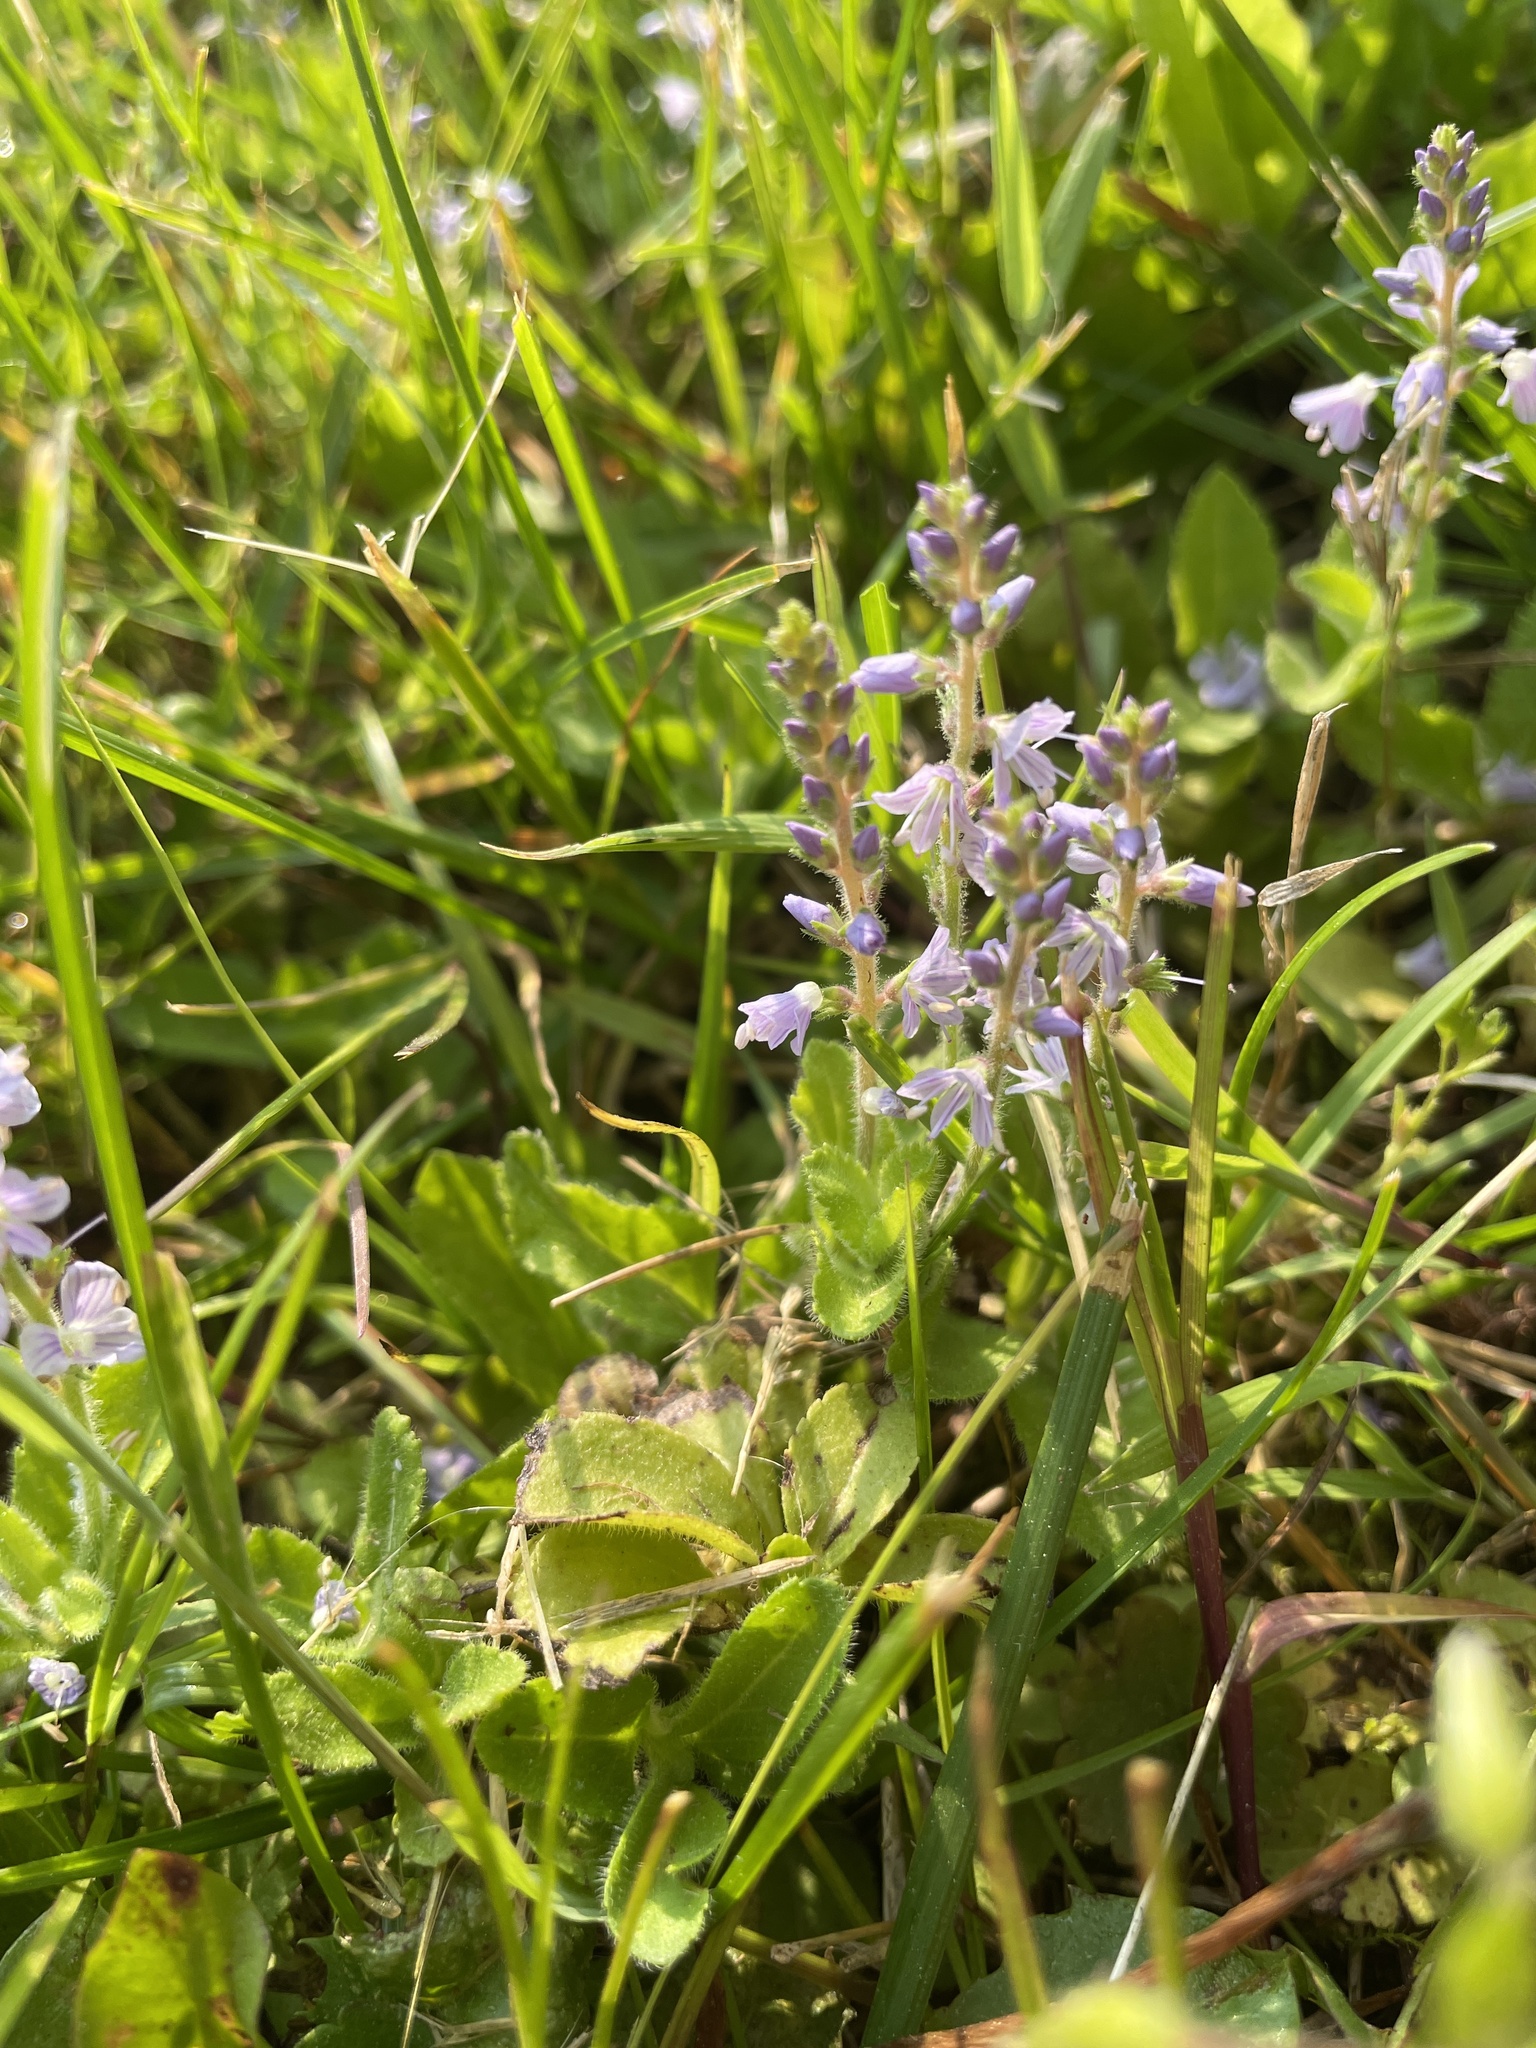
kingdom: Plantae
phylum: Tracheophyta
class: Magnoliopsida
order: Lamiales
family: Plantaginaceae
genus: Veronica
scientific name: Veronica officinalis
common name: Common speedwell
